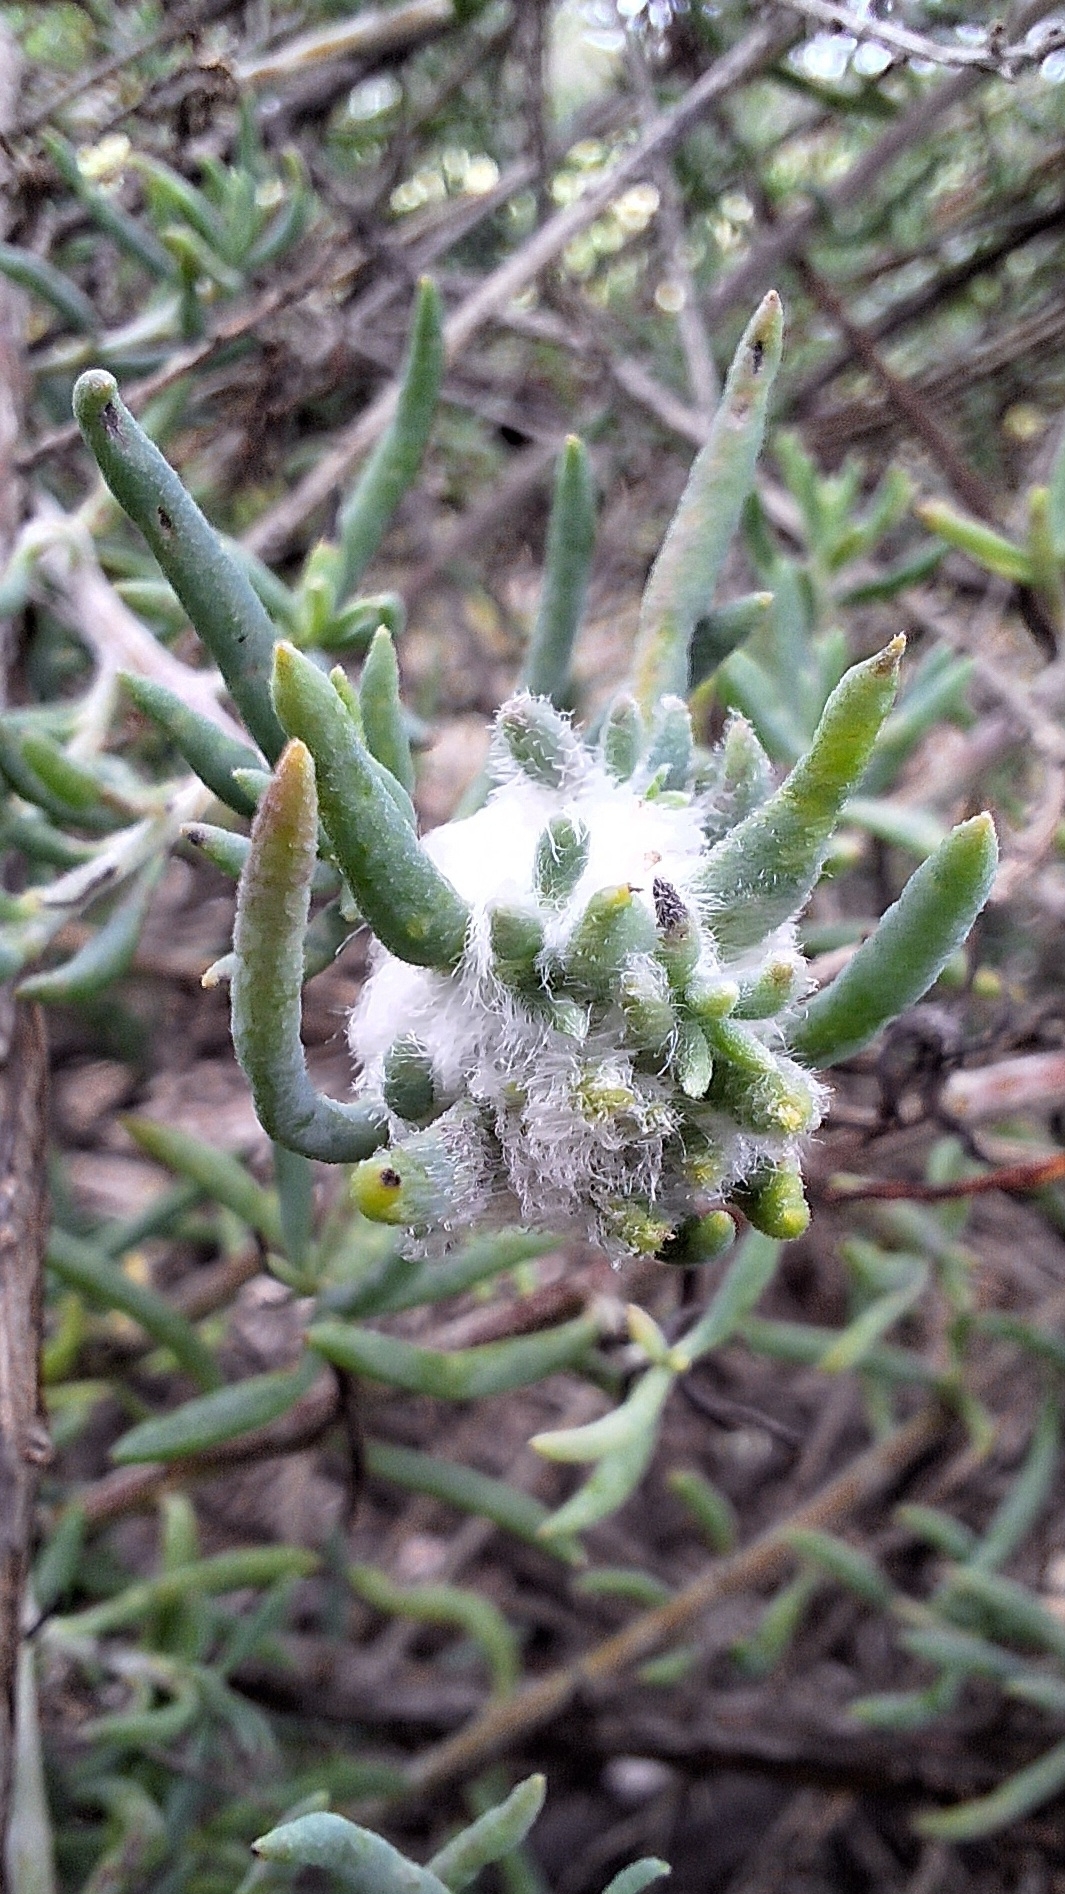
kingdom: Animalia
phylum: Arthropoda
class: Insecta
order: Diptera
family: Cecidomyiidae
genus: Asphondylia
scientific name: Asphondylia tonsura
